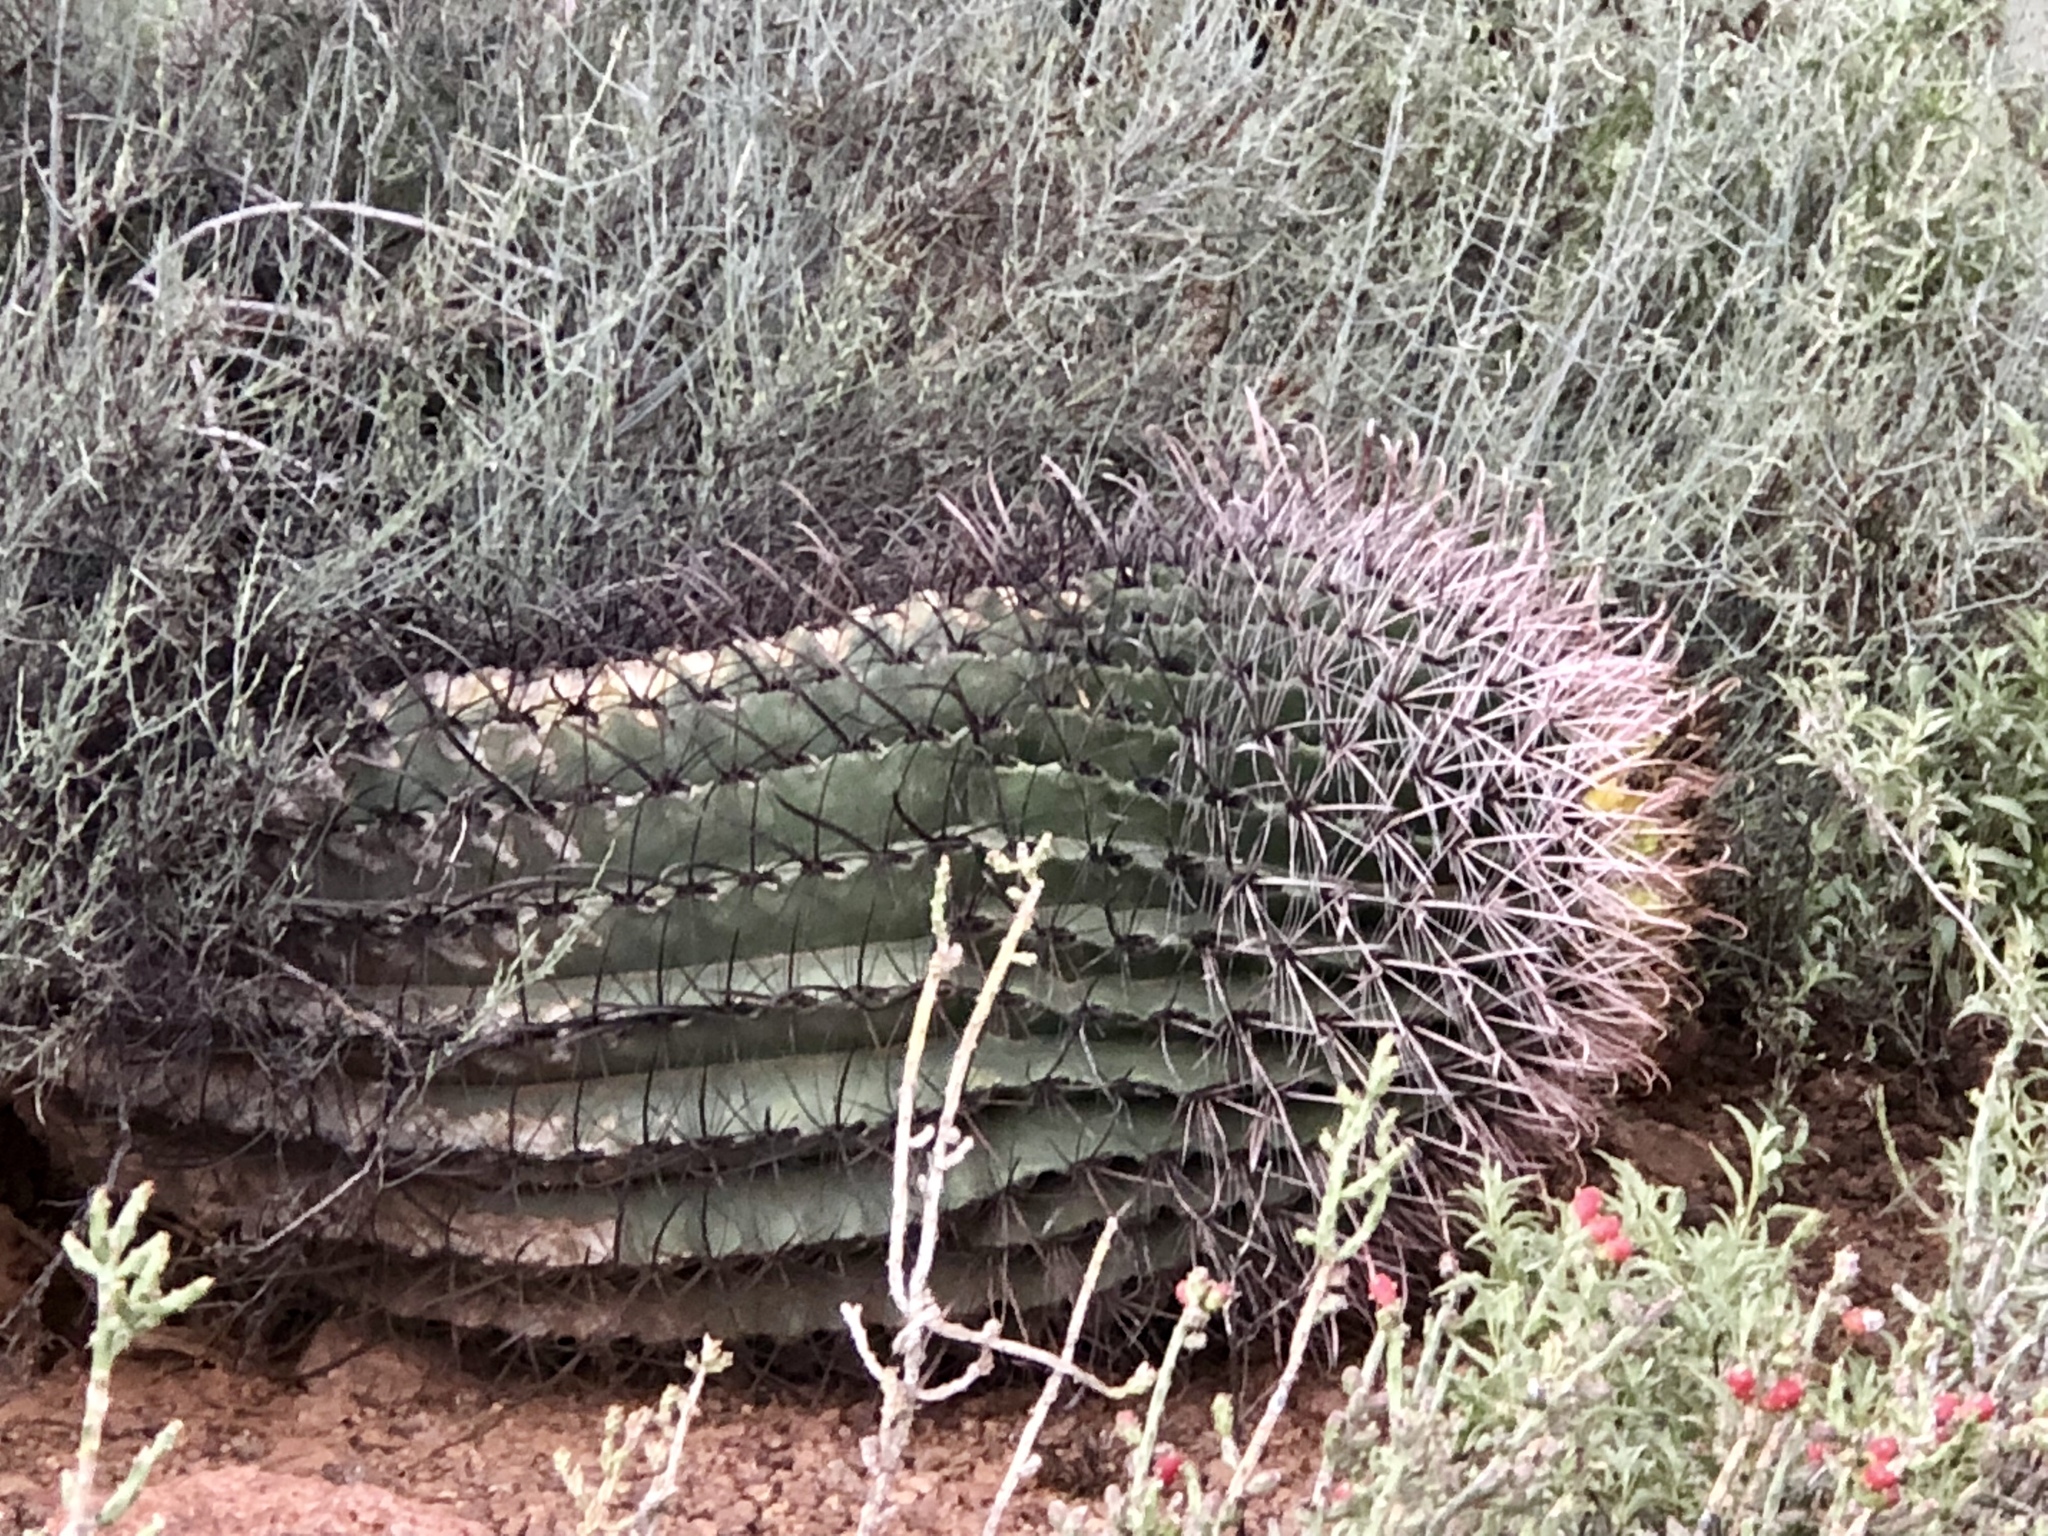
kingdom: Plantae
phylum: Tracheophyta
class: Magnoliopsida
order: Caryophyllales
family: Cactaceae
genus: Ferocactus
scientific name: Ferocactus wislizeni
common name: Candy barrel cactus
